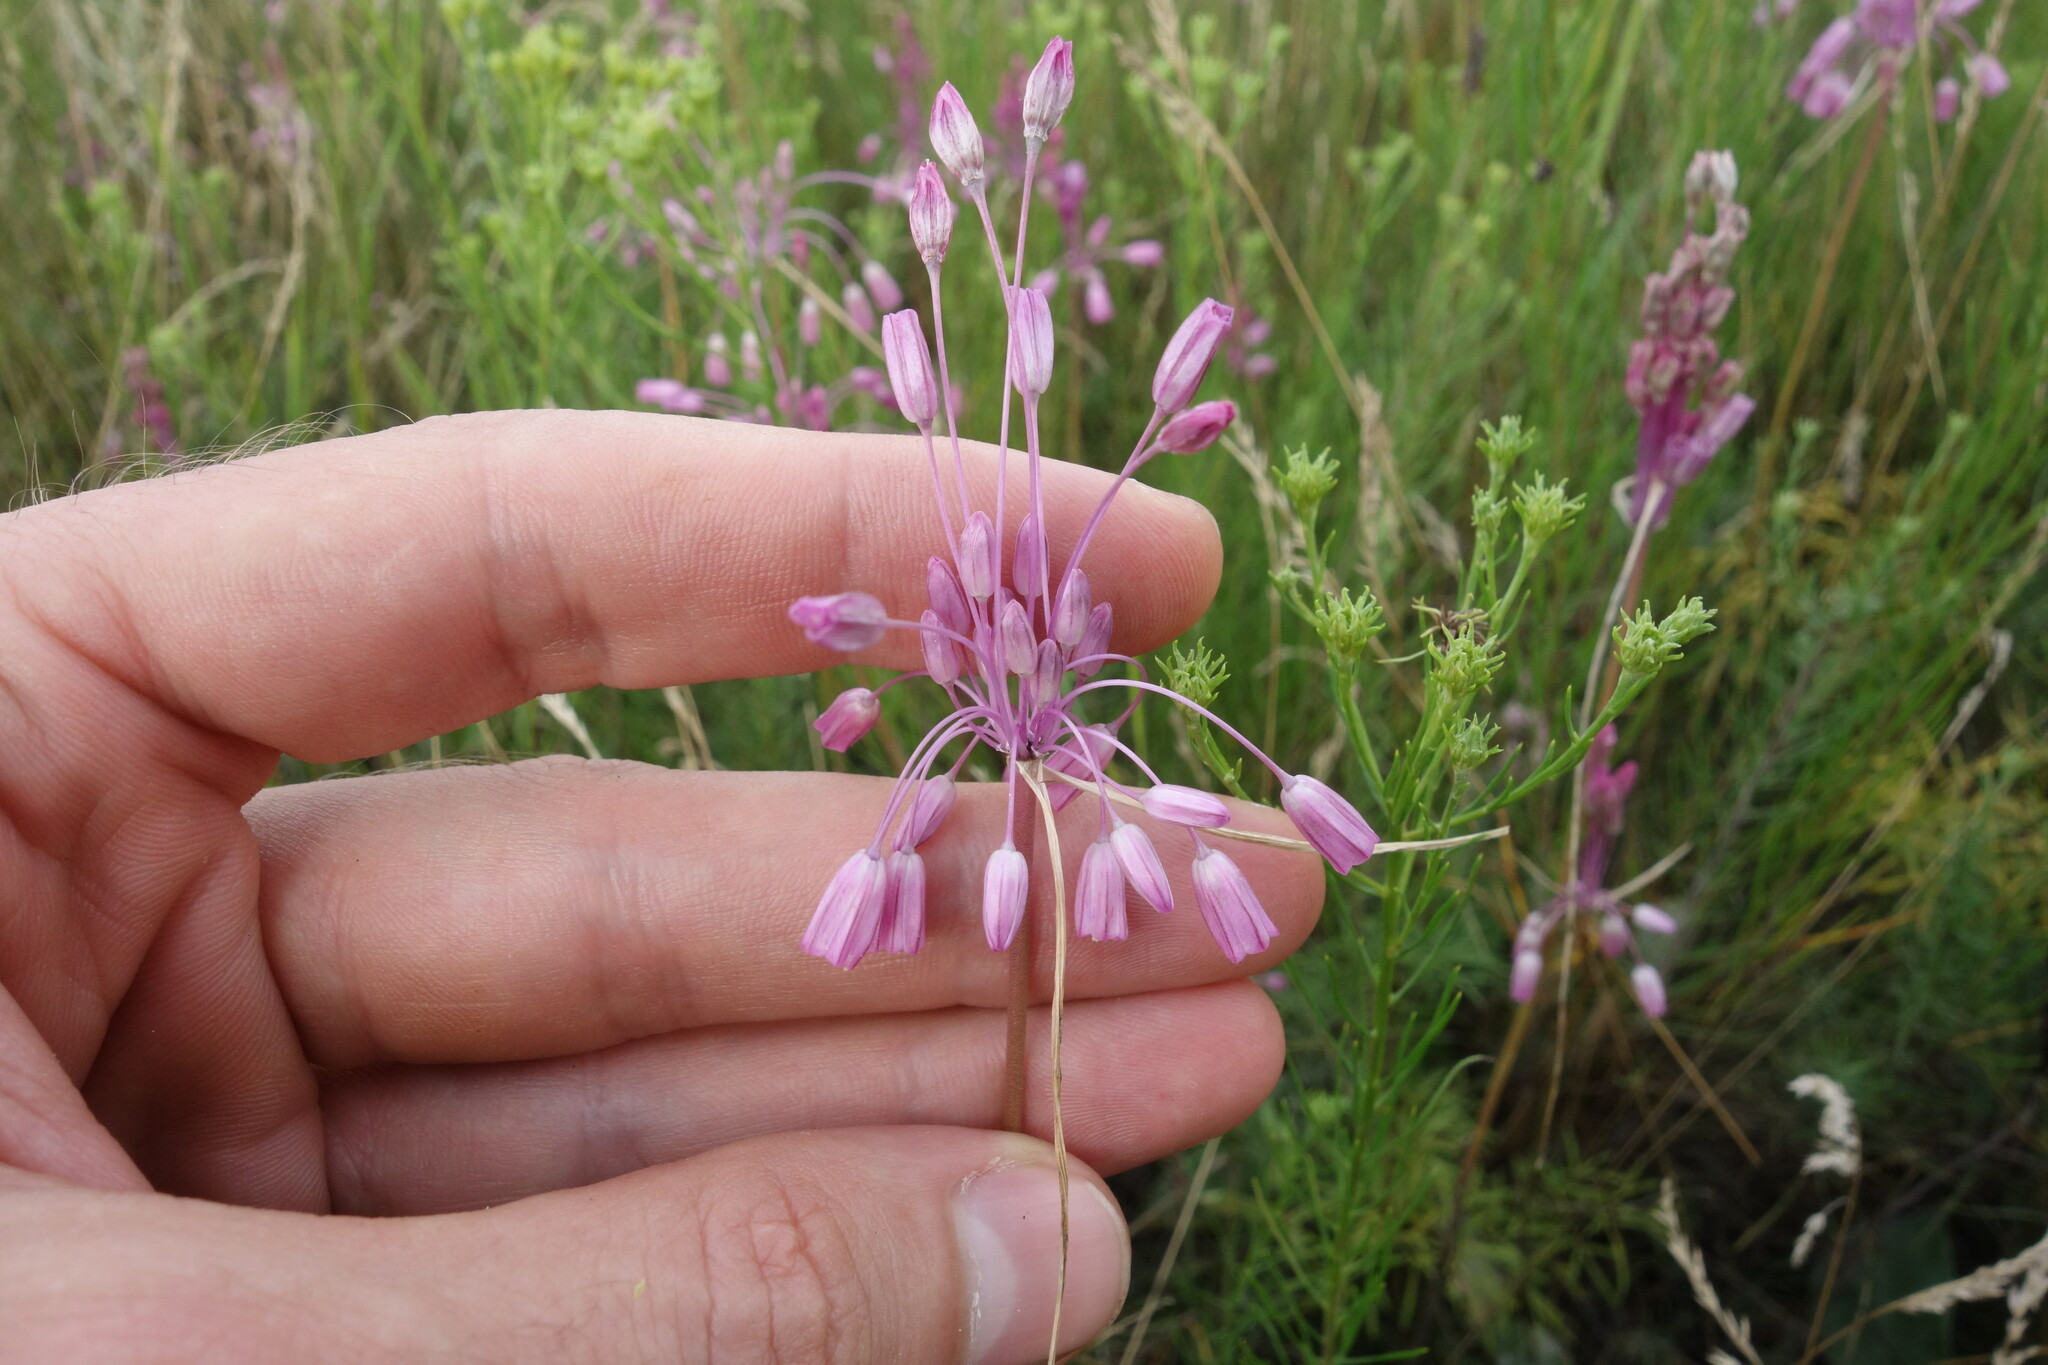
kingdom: Plantae
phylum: Tracheophyta
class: Liliopsida
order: Asparagales
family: Amaryllidaceae
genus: Allium
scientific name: Allium praescissum
